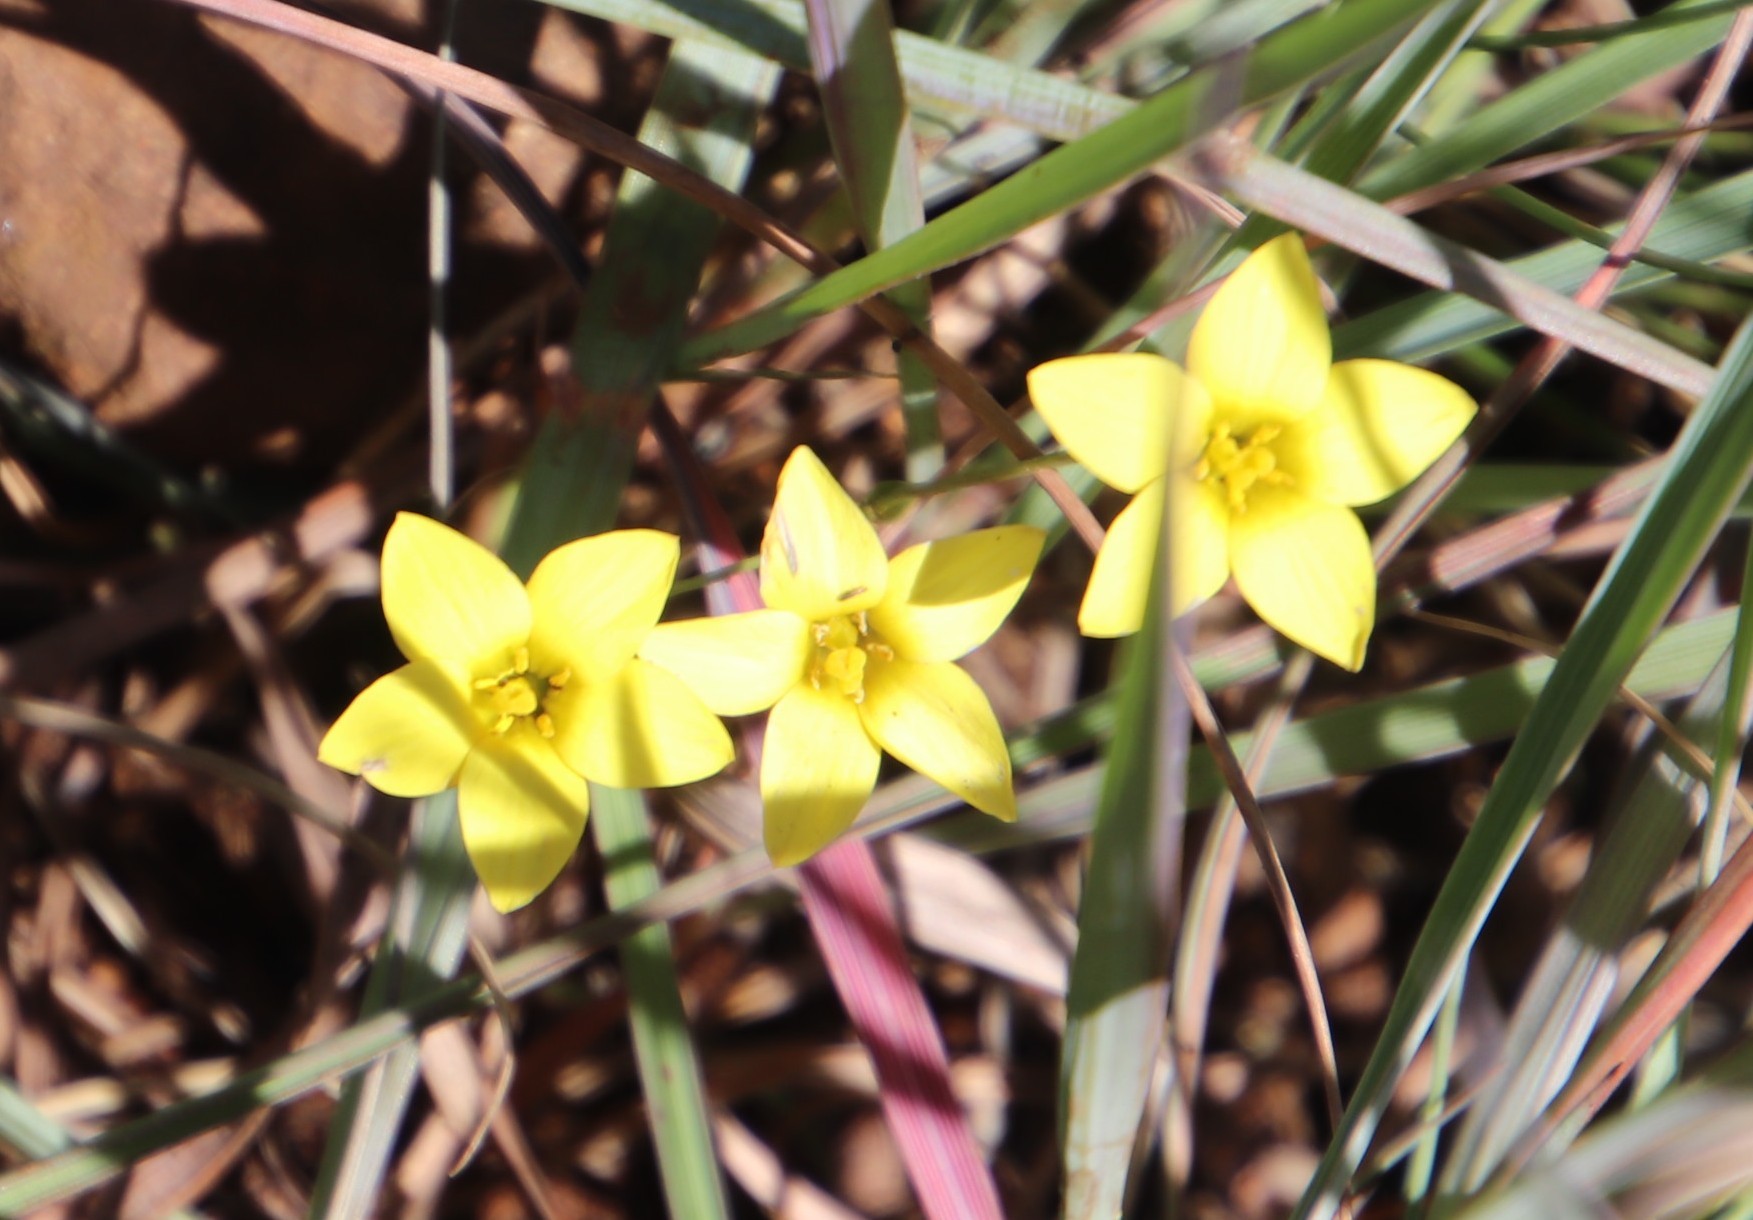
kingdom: Plantae
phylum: Tracheophyta
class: Magnoliopsida
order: Gentianales
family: Gentianaceae
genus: Sebaea
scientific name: Sebaea natalensis
